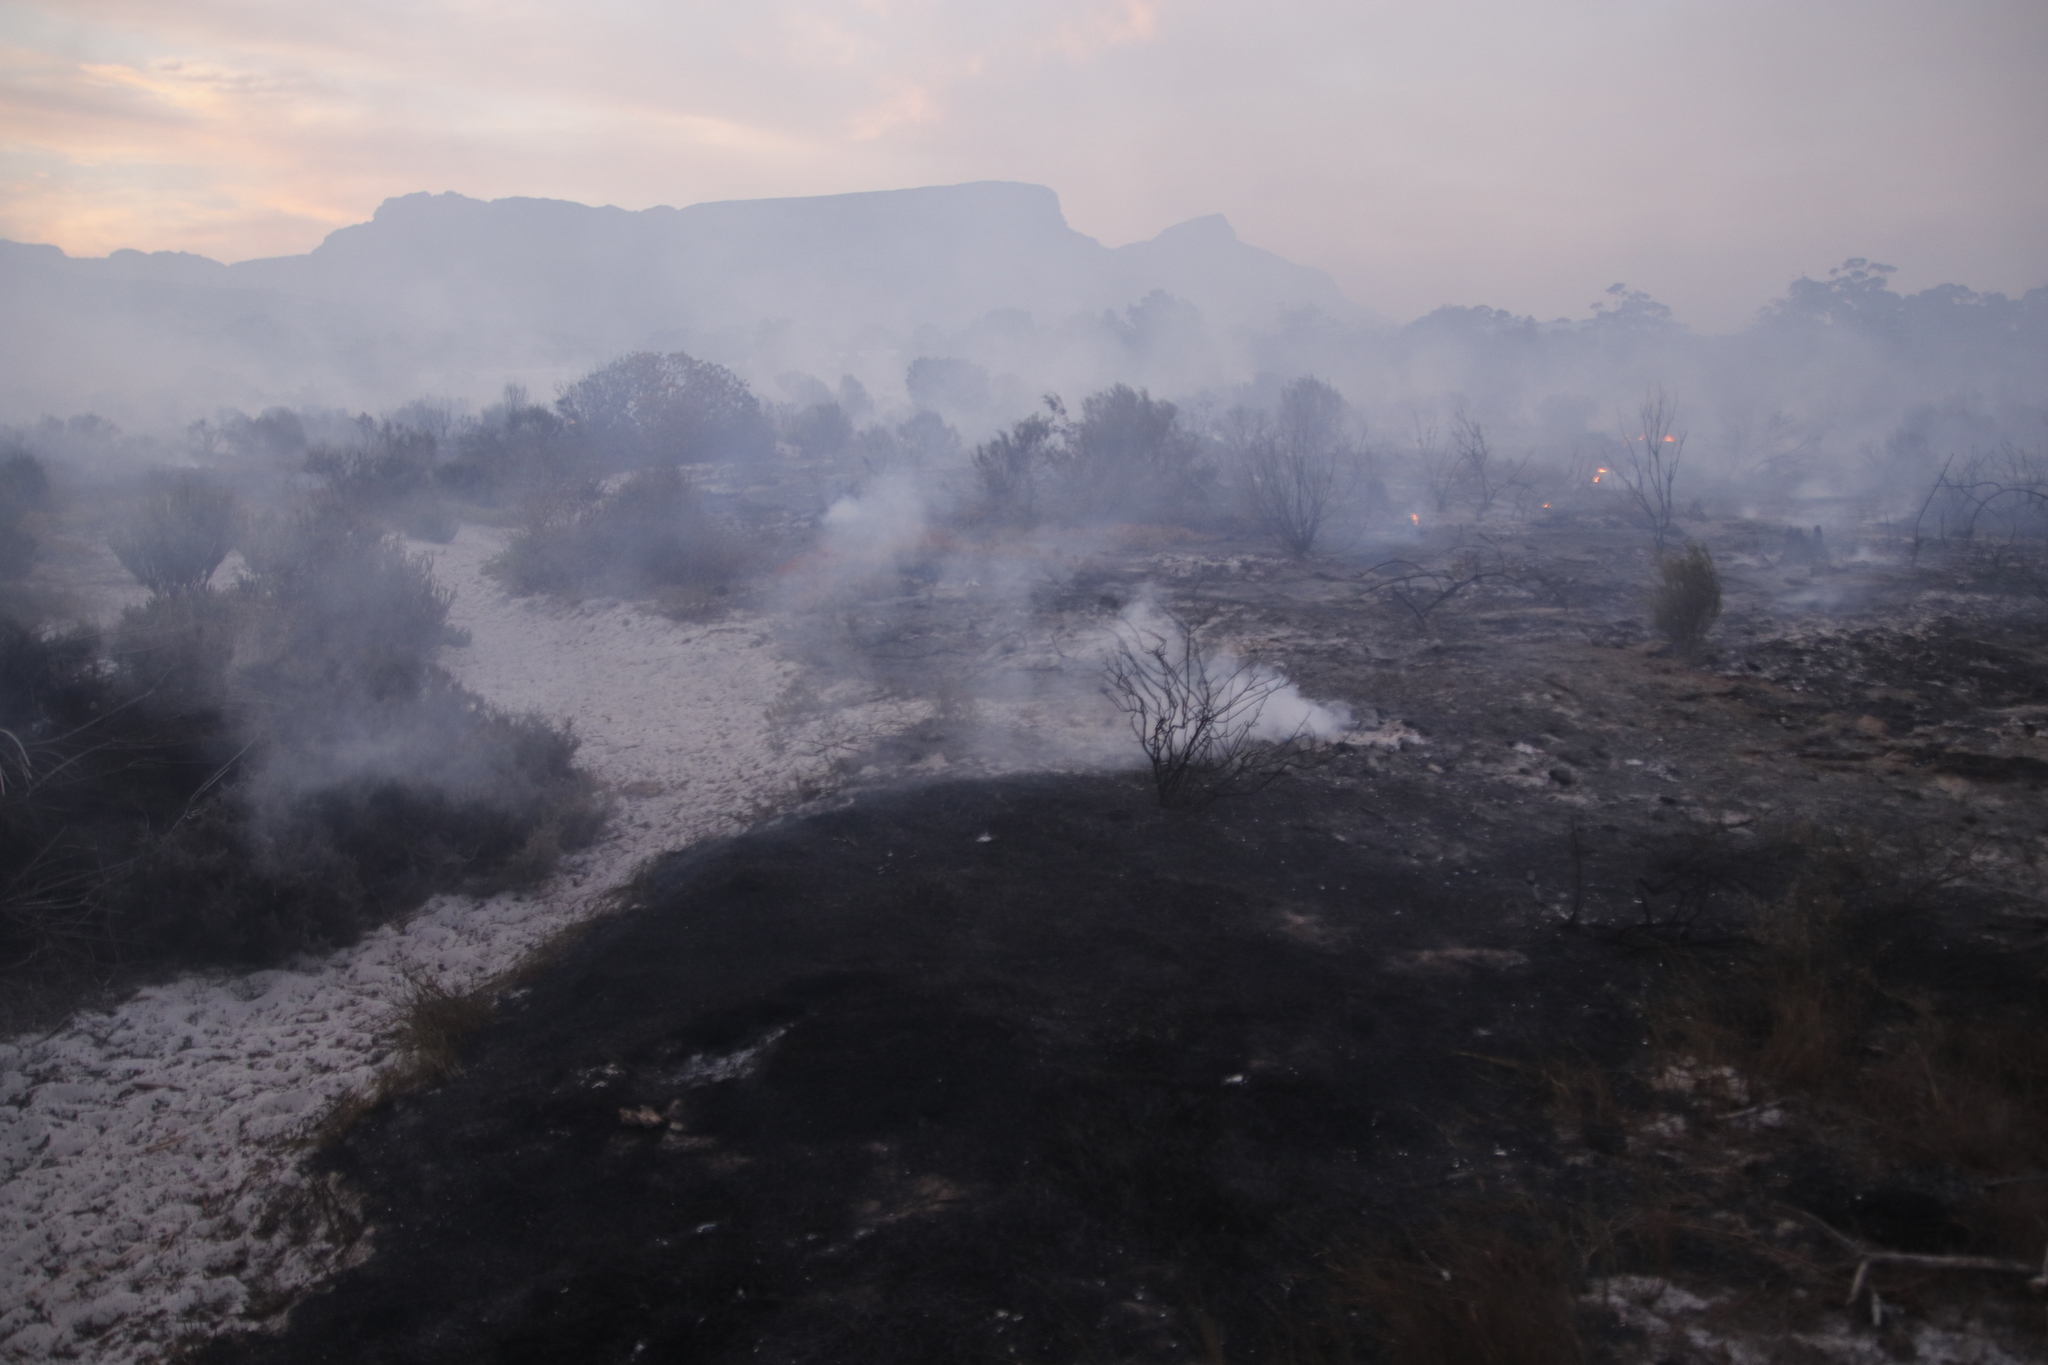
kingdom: Plantae
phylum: Tracheophyta
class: Liliopsida
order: Poales
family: Restionaceae
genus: Willdenowia
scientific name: Willdenowia sulcata
